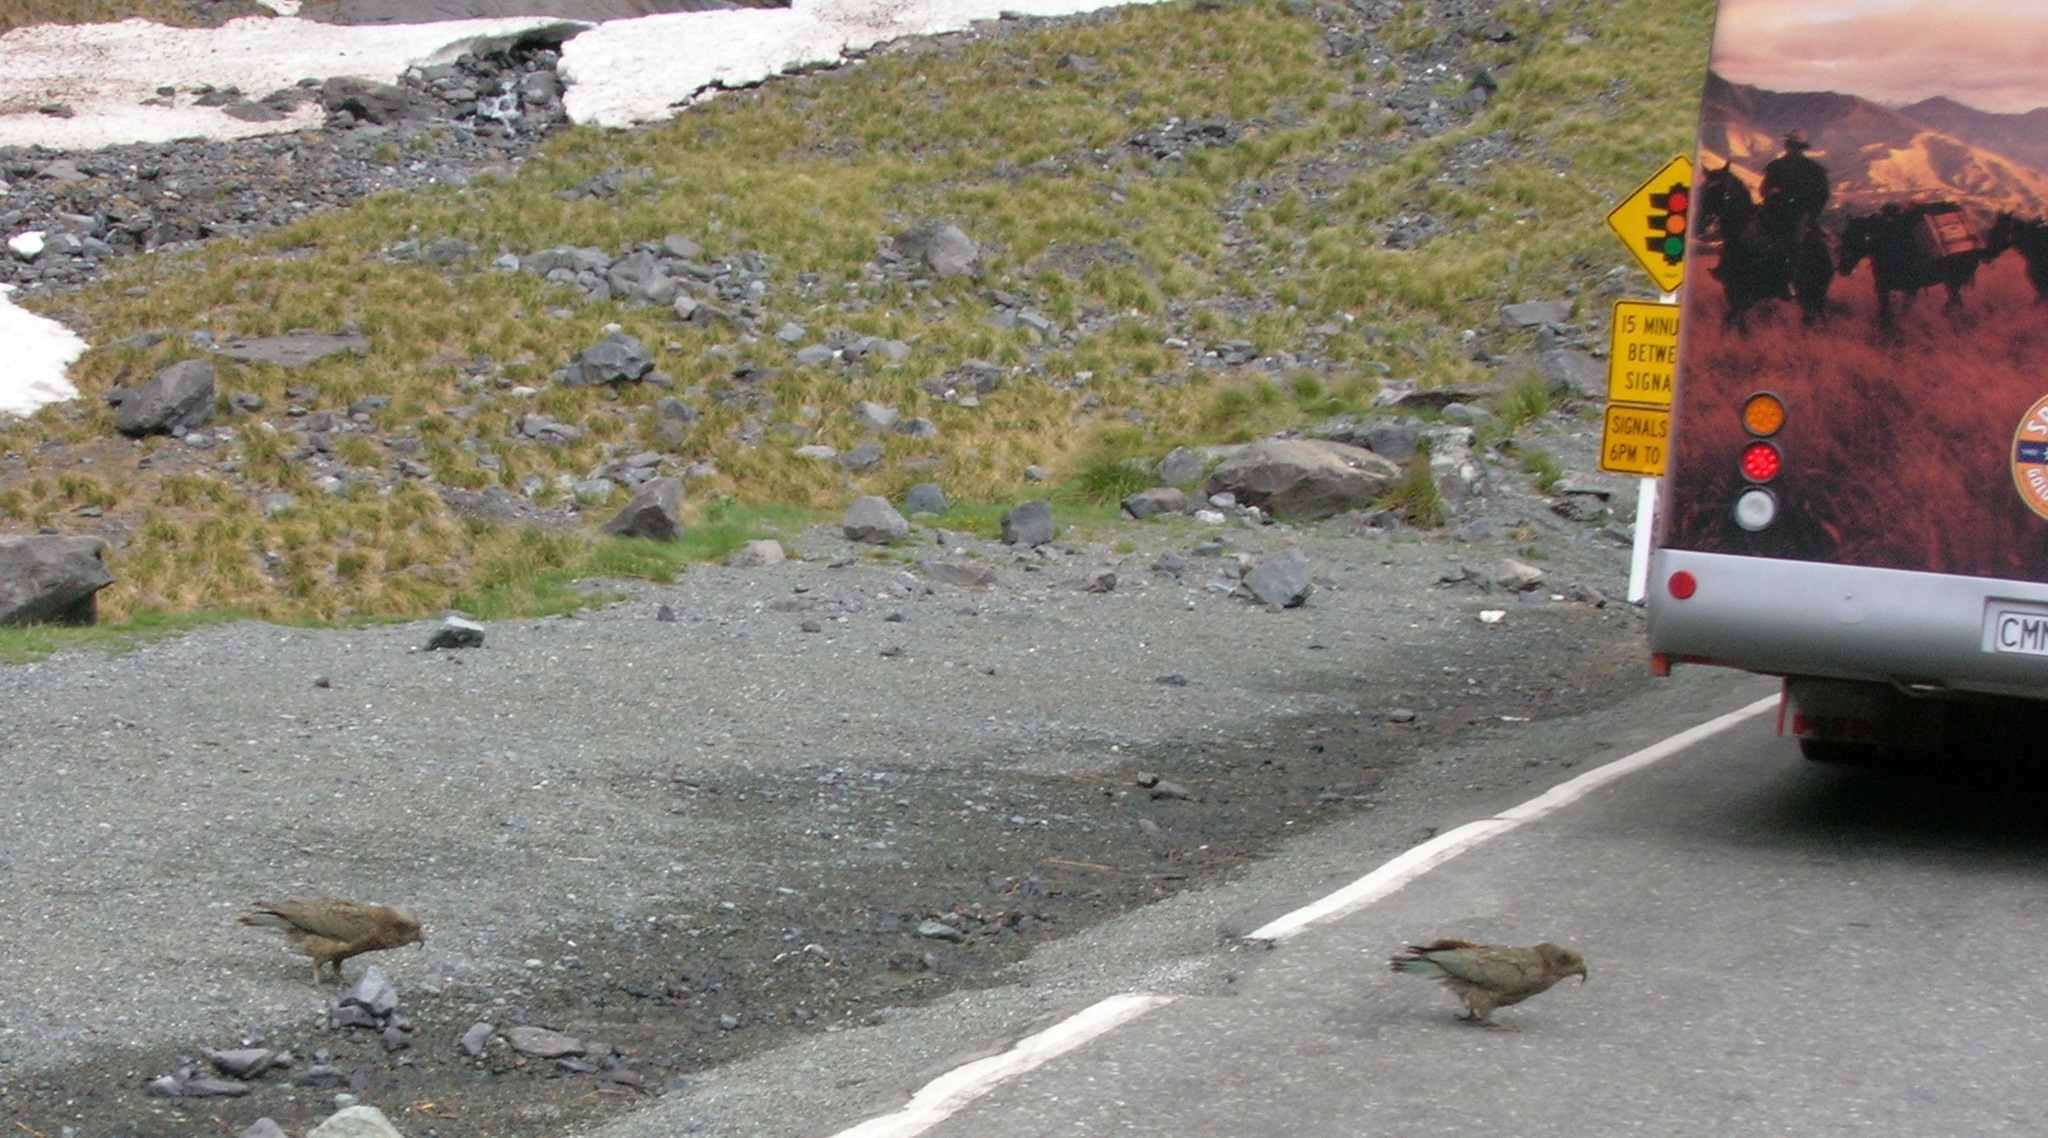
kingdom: Animalia
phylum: Chordata
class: Aves
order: Psittaciformes
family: Psittacidae
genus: Nestor
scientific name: Nestor notabilis
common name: Kea
